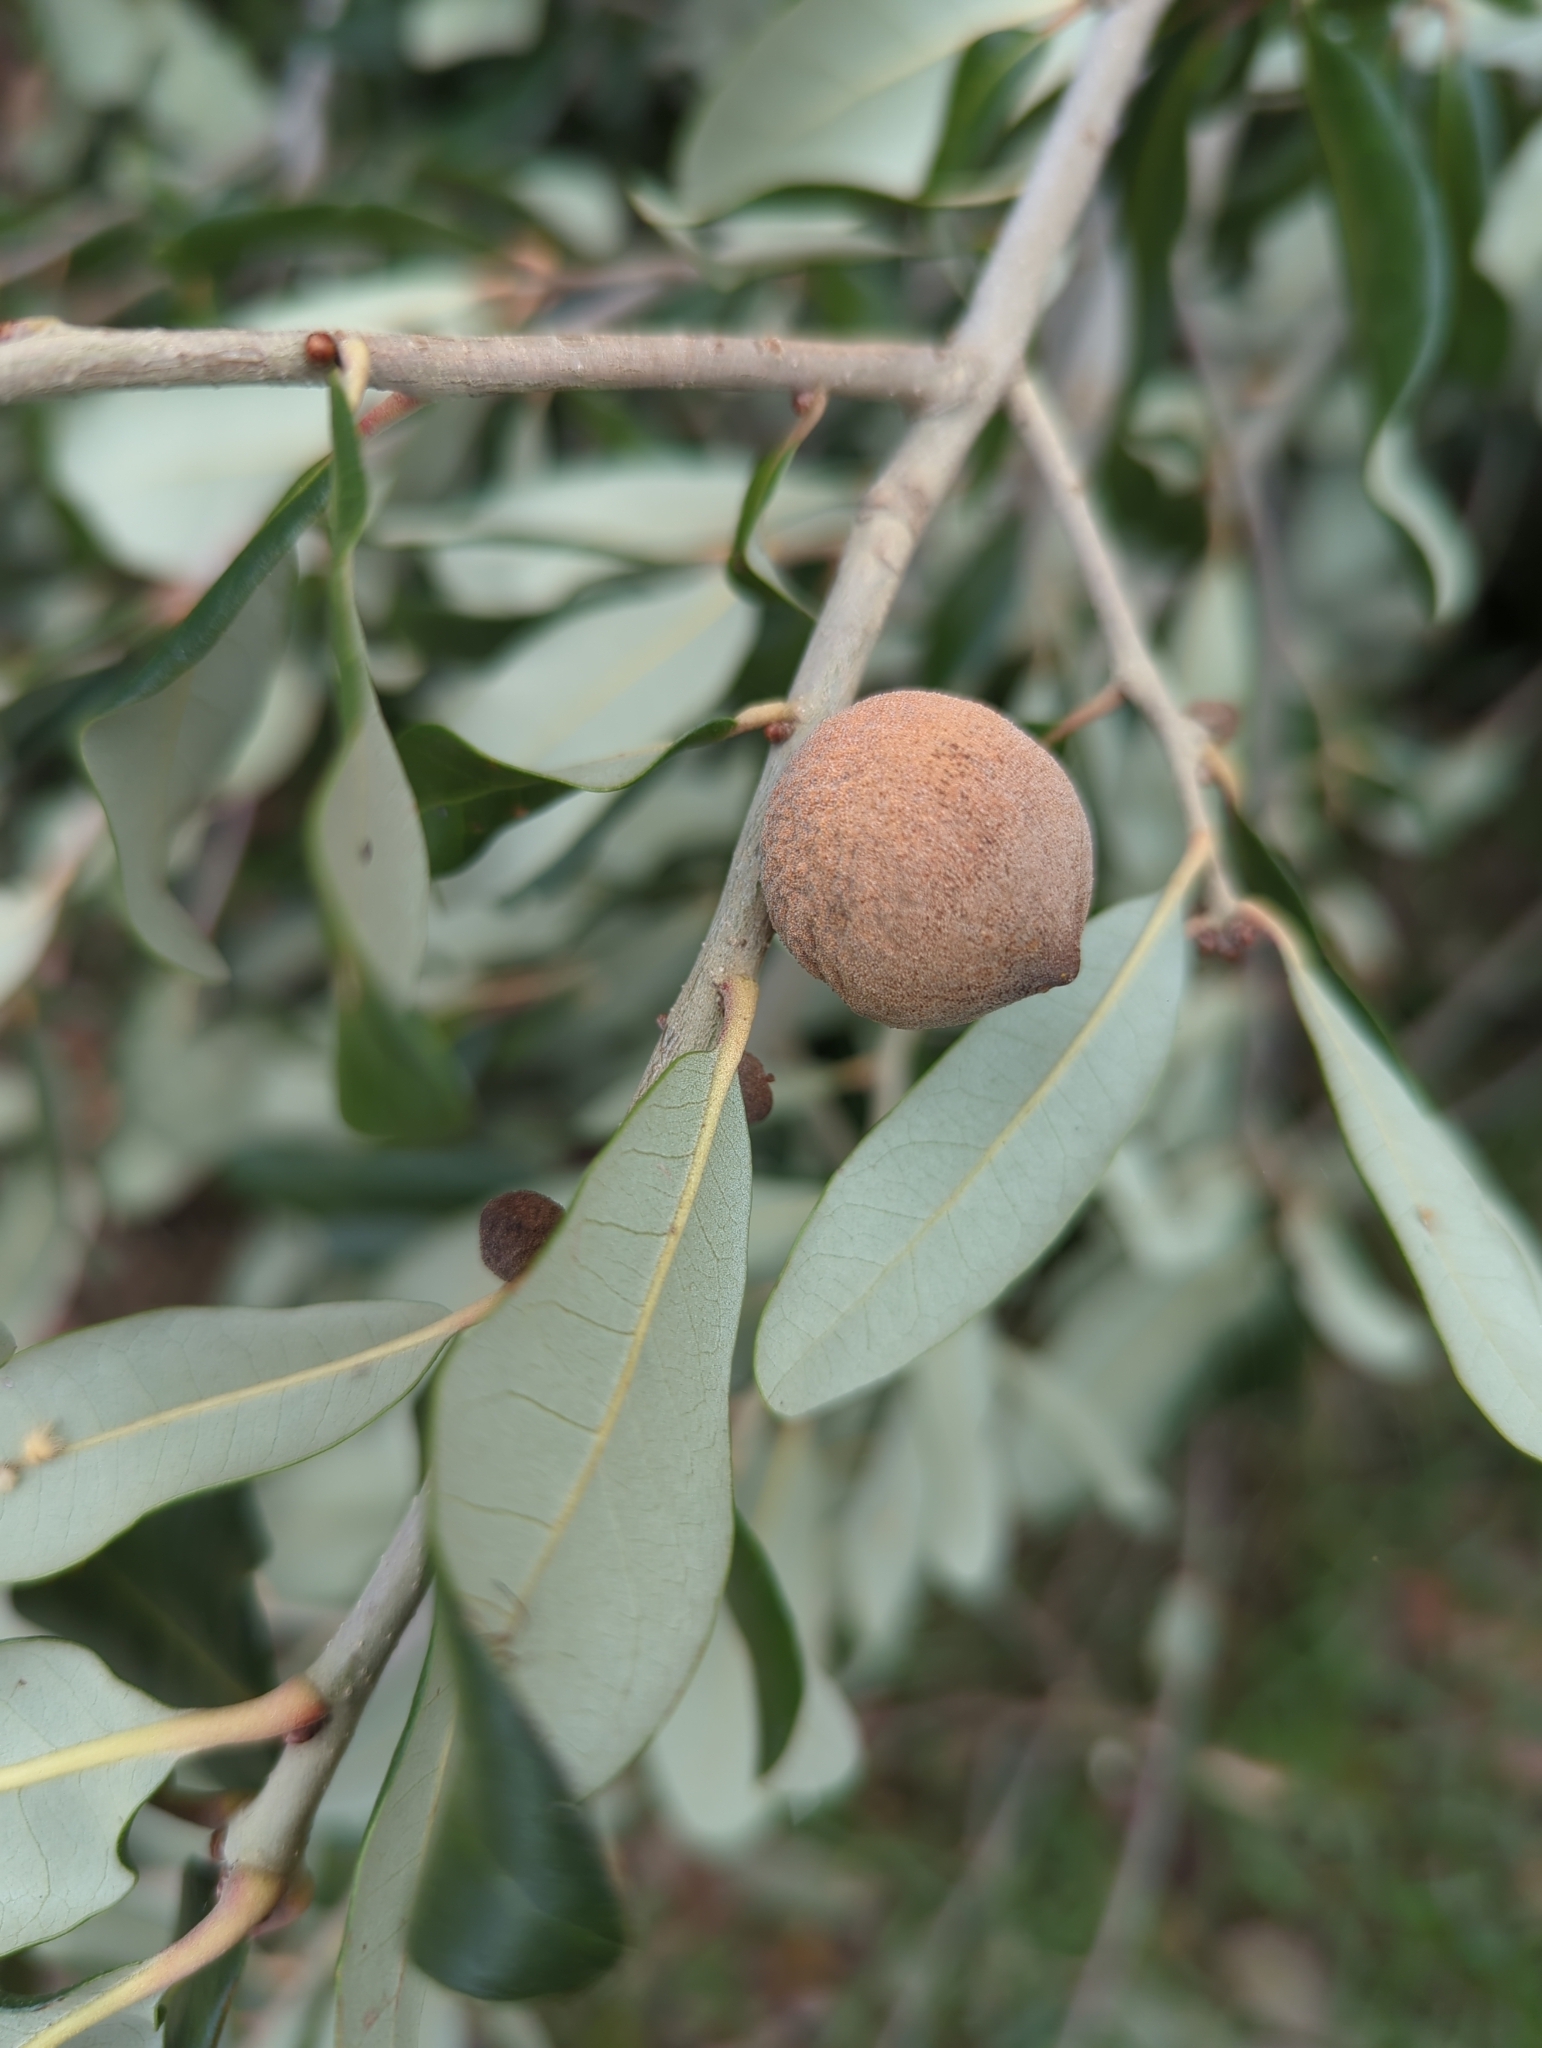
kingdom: Animalia
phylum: Arthropoda
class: Insecta
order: Hymenoptera
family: Cynipidae
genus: Disholcaspis
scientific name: Disholcaspis
